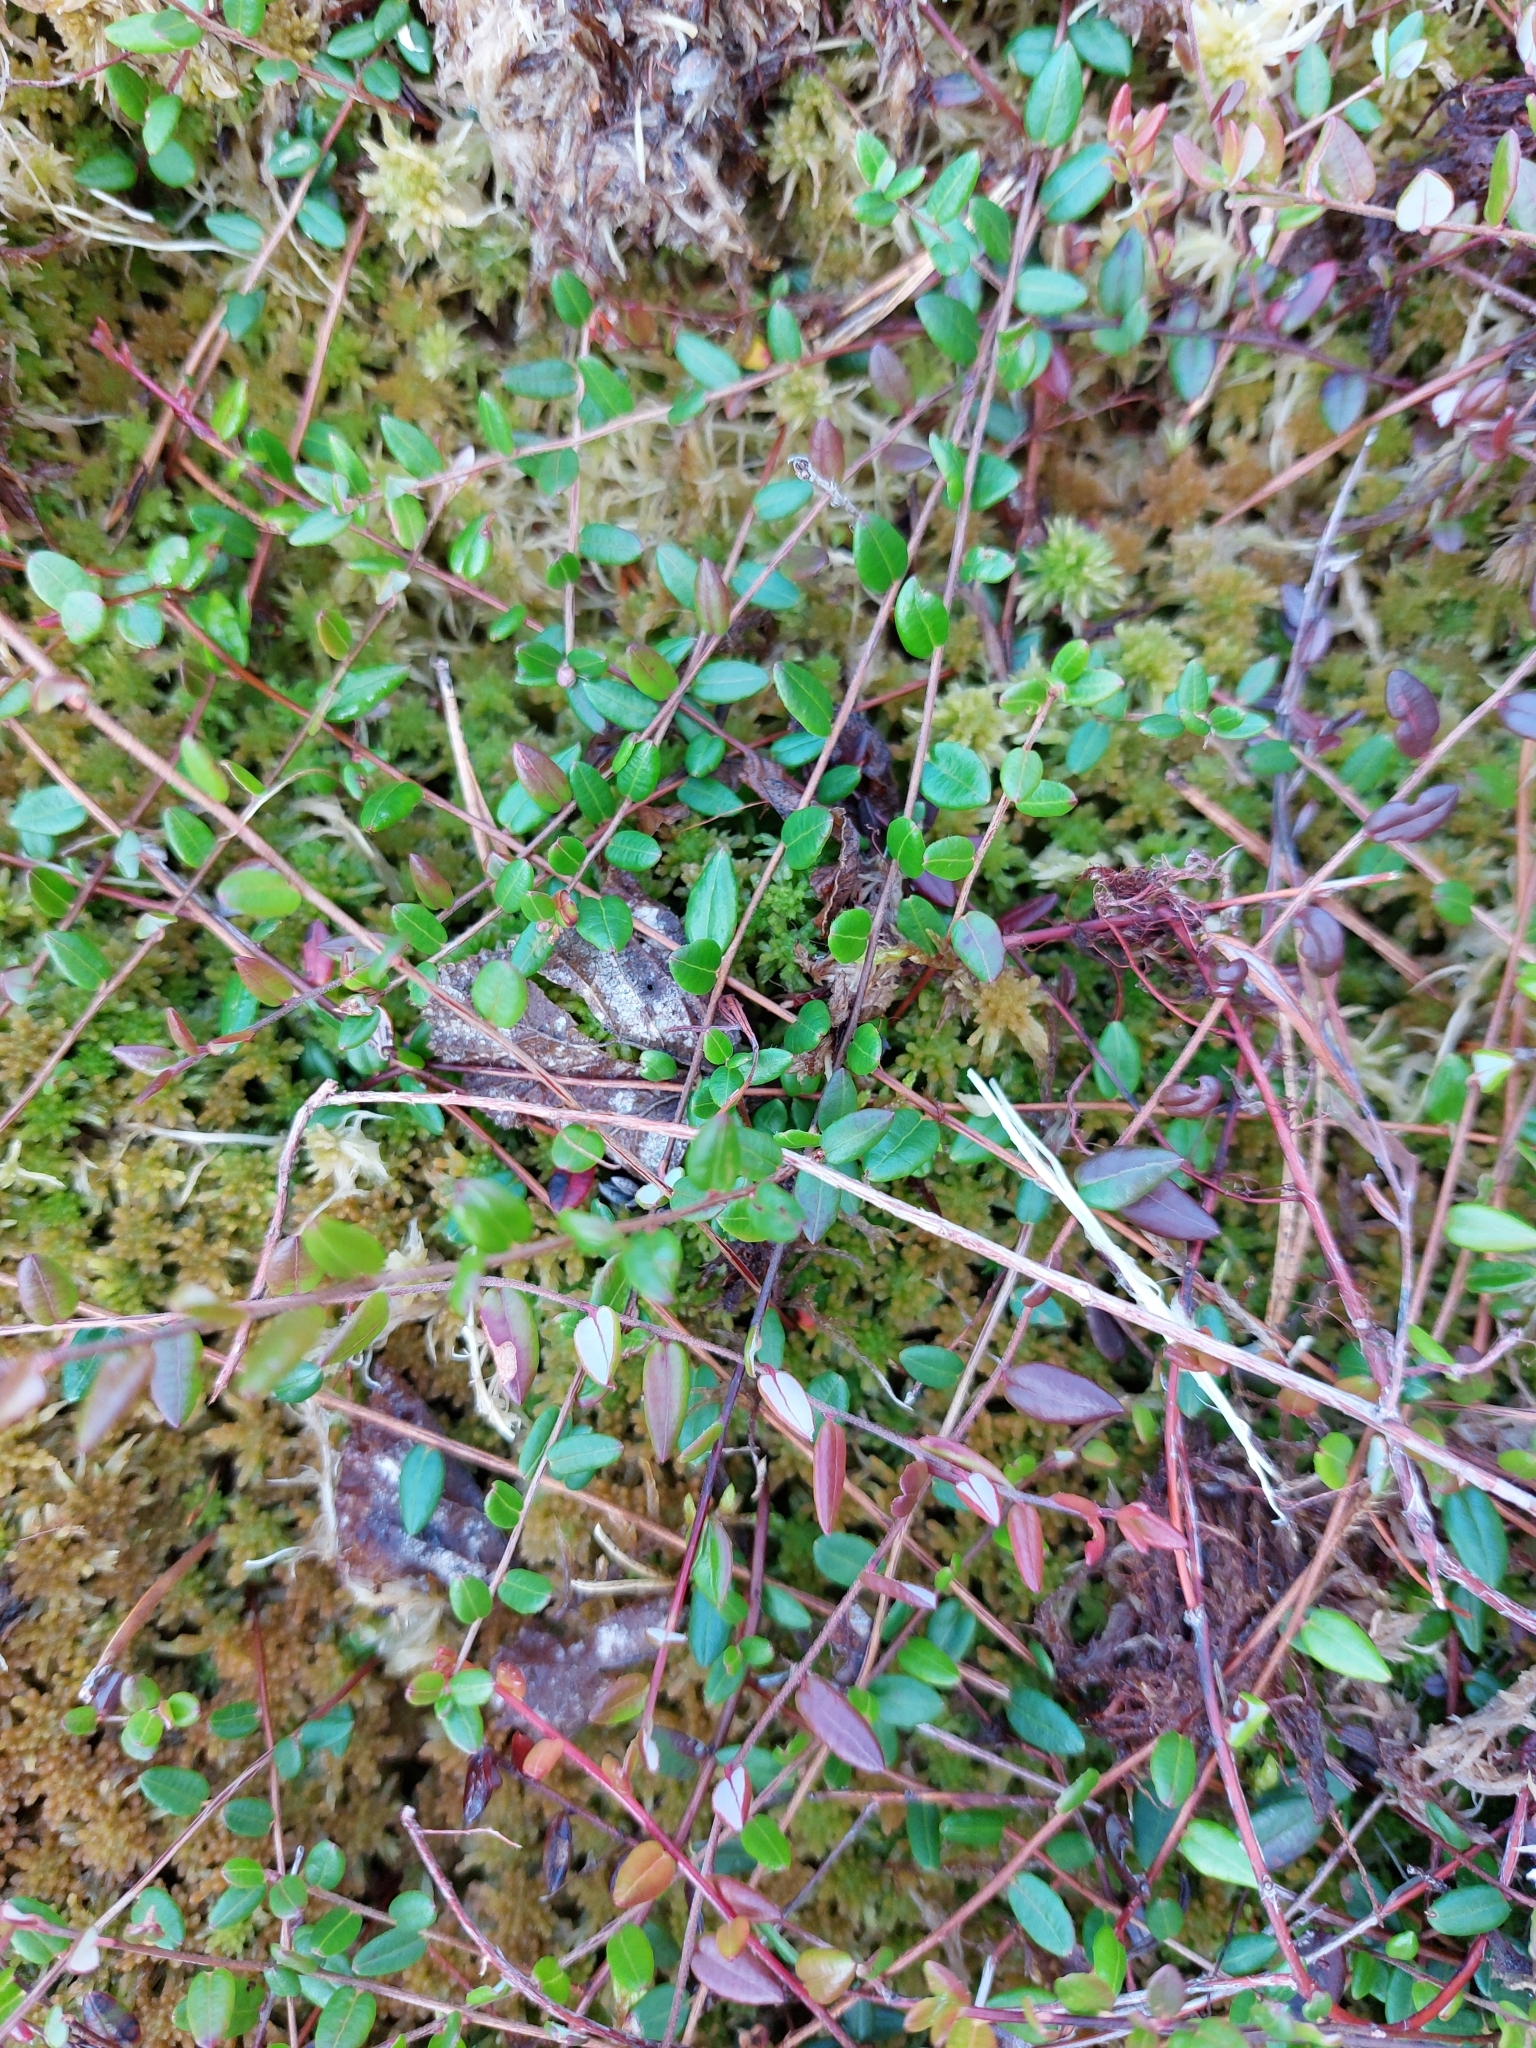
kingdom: Plantae
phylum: Tracheophyta
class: Magnoliopsida
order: Ericales
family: Ericaceae
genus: Vaccinium
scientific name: Vaccinium oxycoccos
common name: Cranberry
